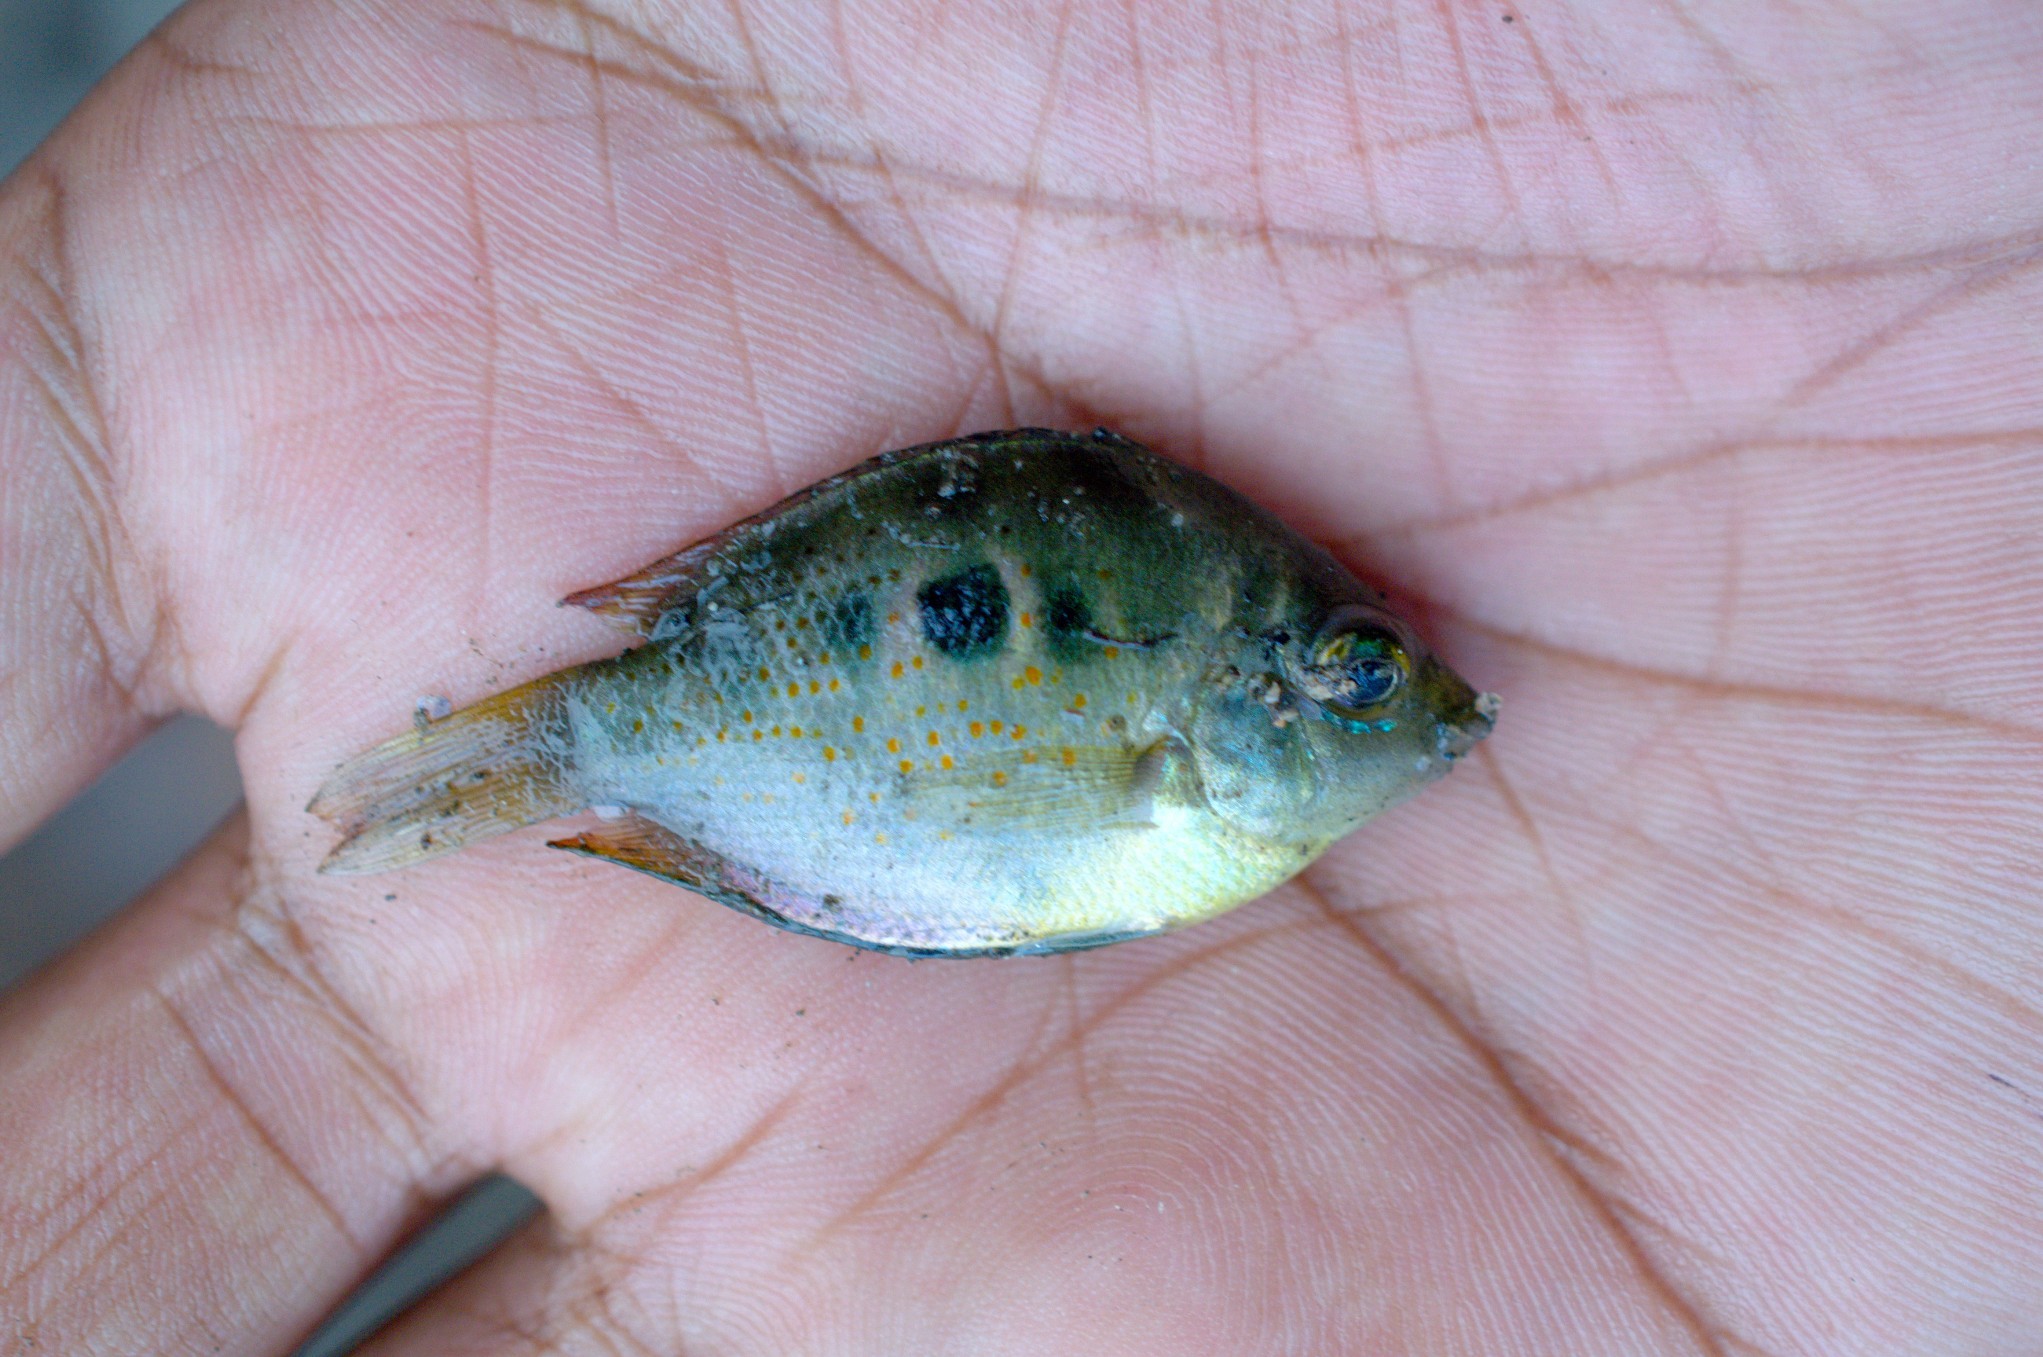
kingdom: Animalia
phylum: Chordata
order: Perciformes
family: Cichlidae
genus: Etroplus
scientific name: Etroplus maculatus
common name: Orange chromide
